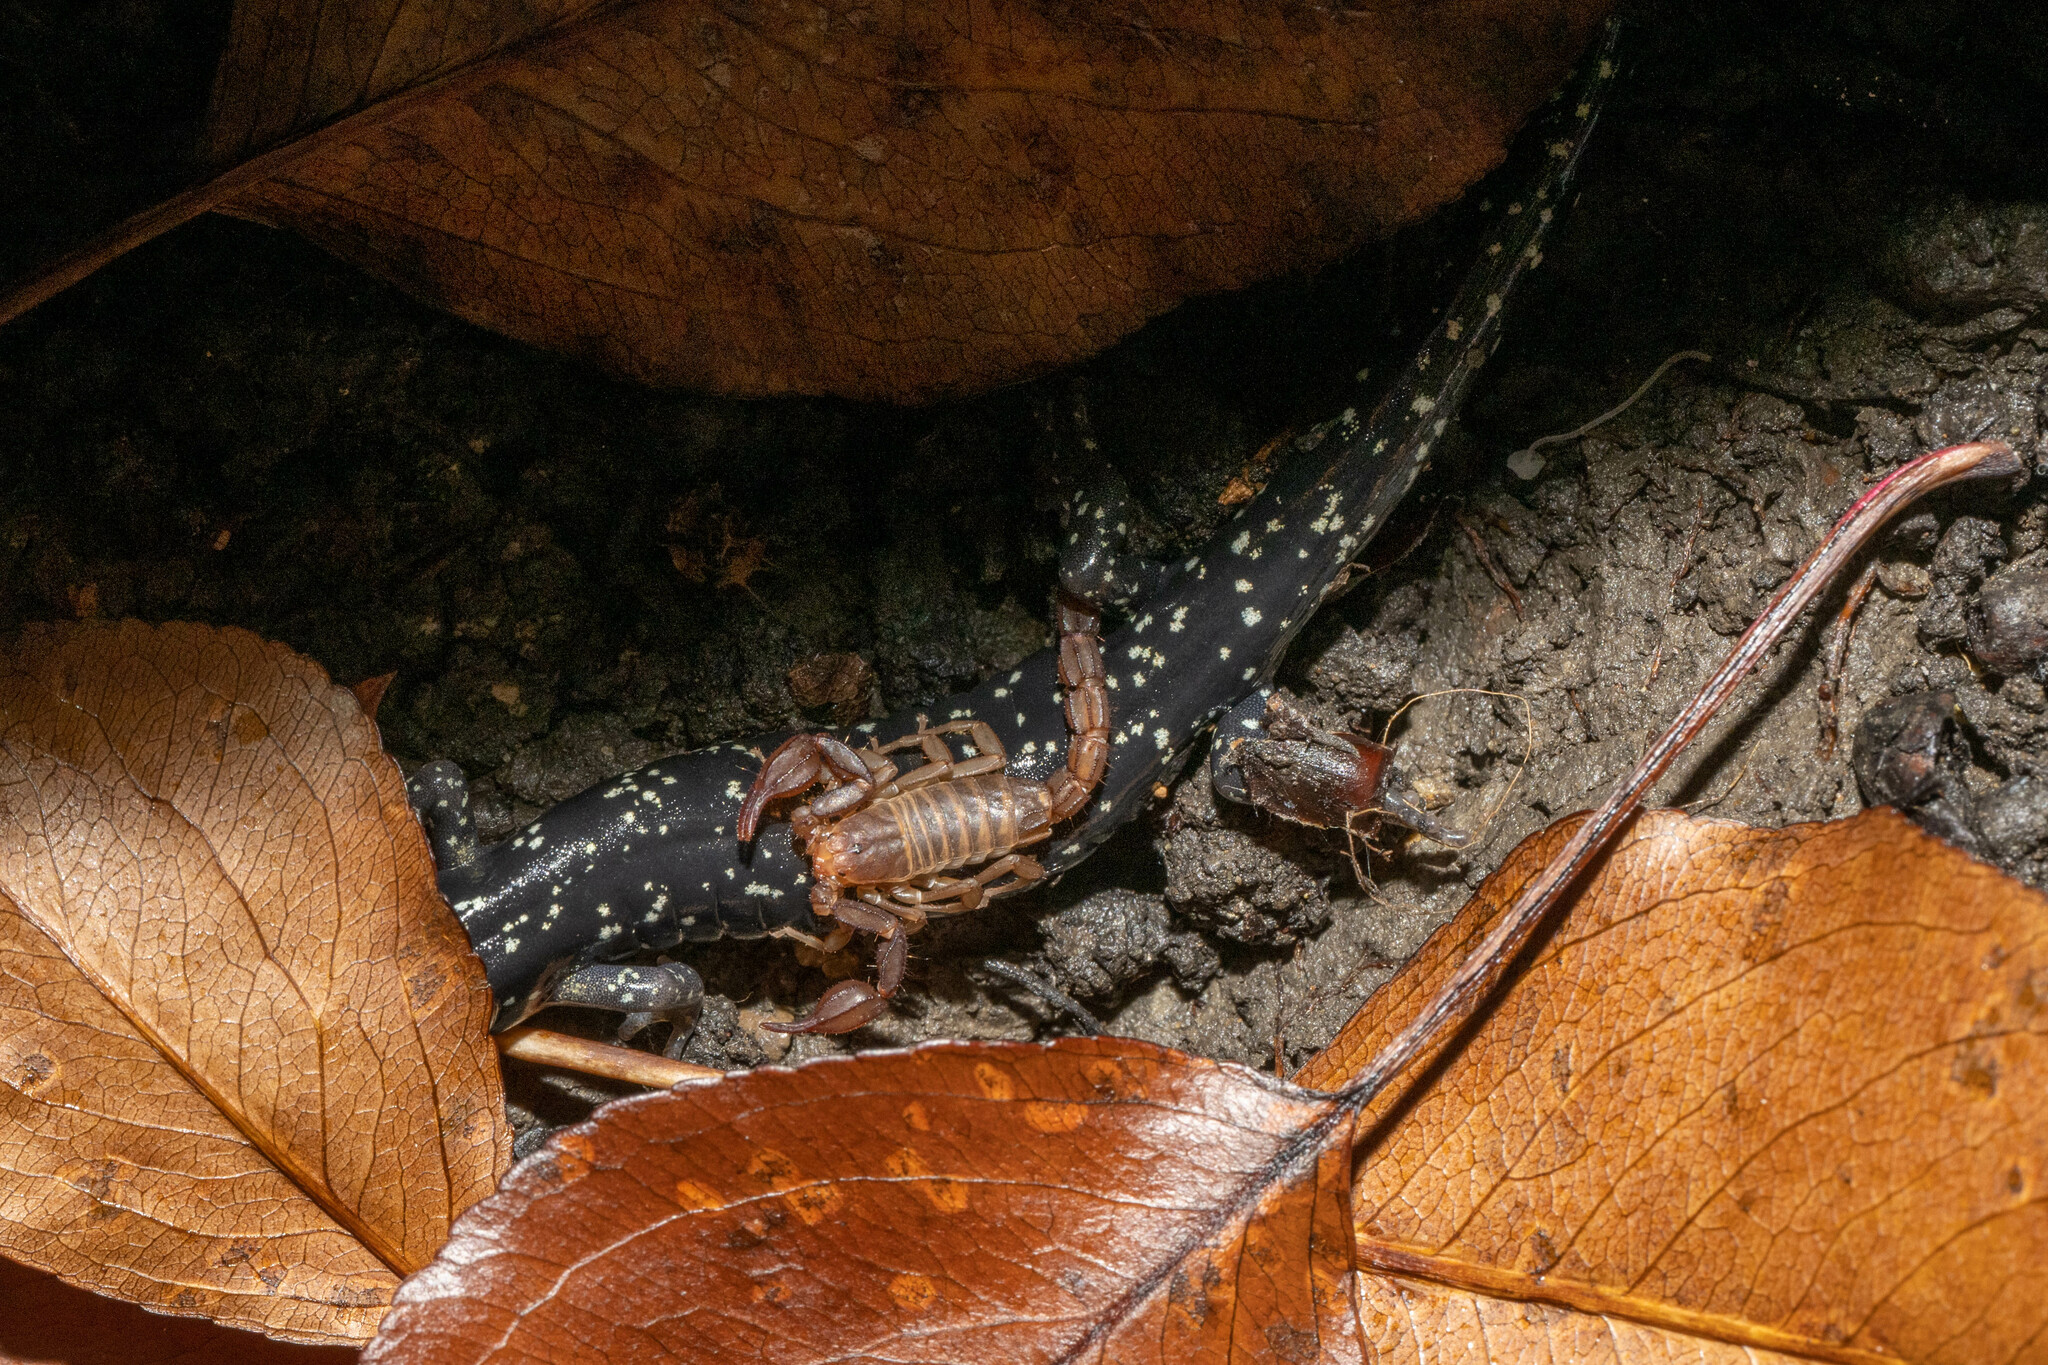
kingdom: Animalia
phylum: Arthropoda
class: Arachnida
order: Scorpiones
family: Vaejovidae
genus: Graemeloweus
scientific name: Graemeloweus glimmei
